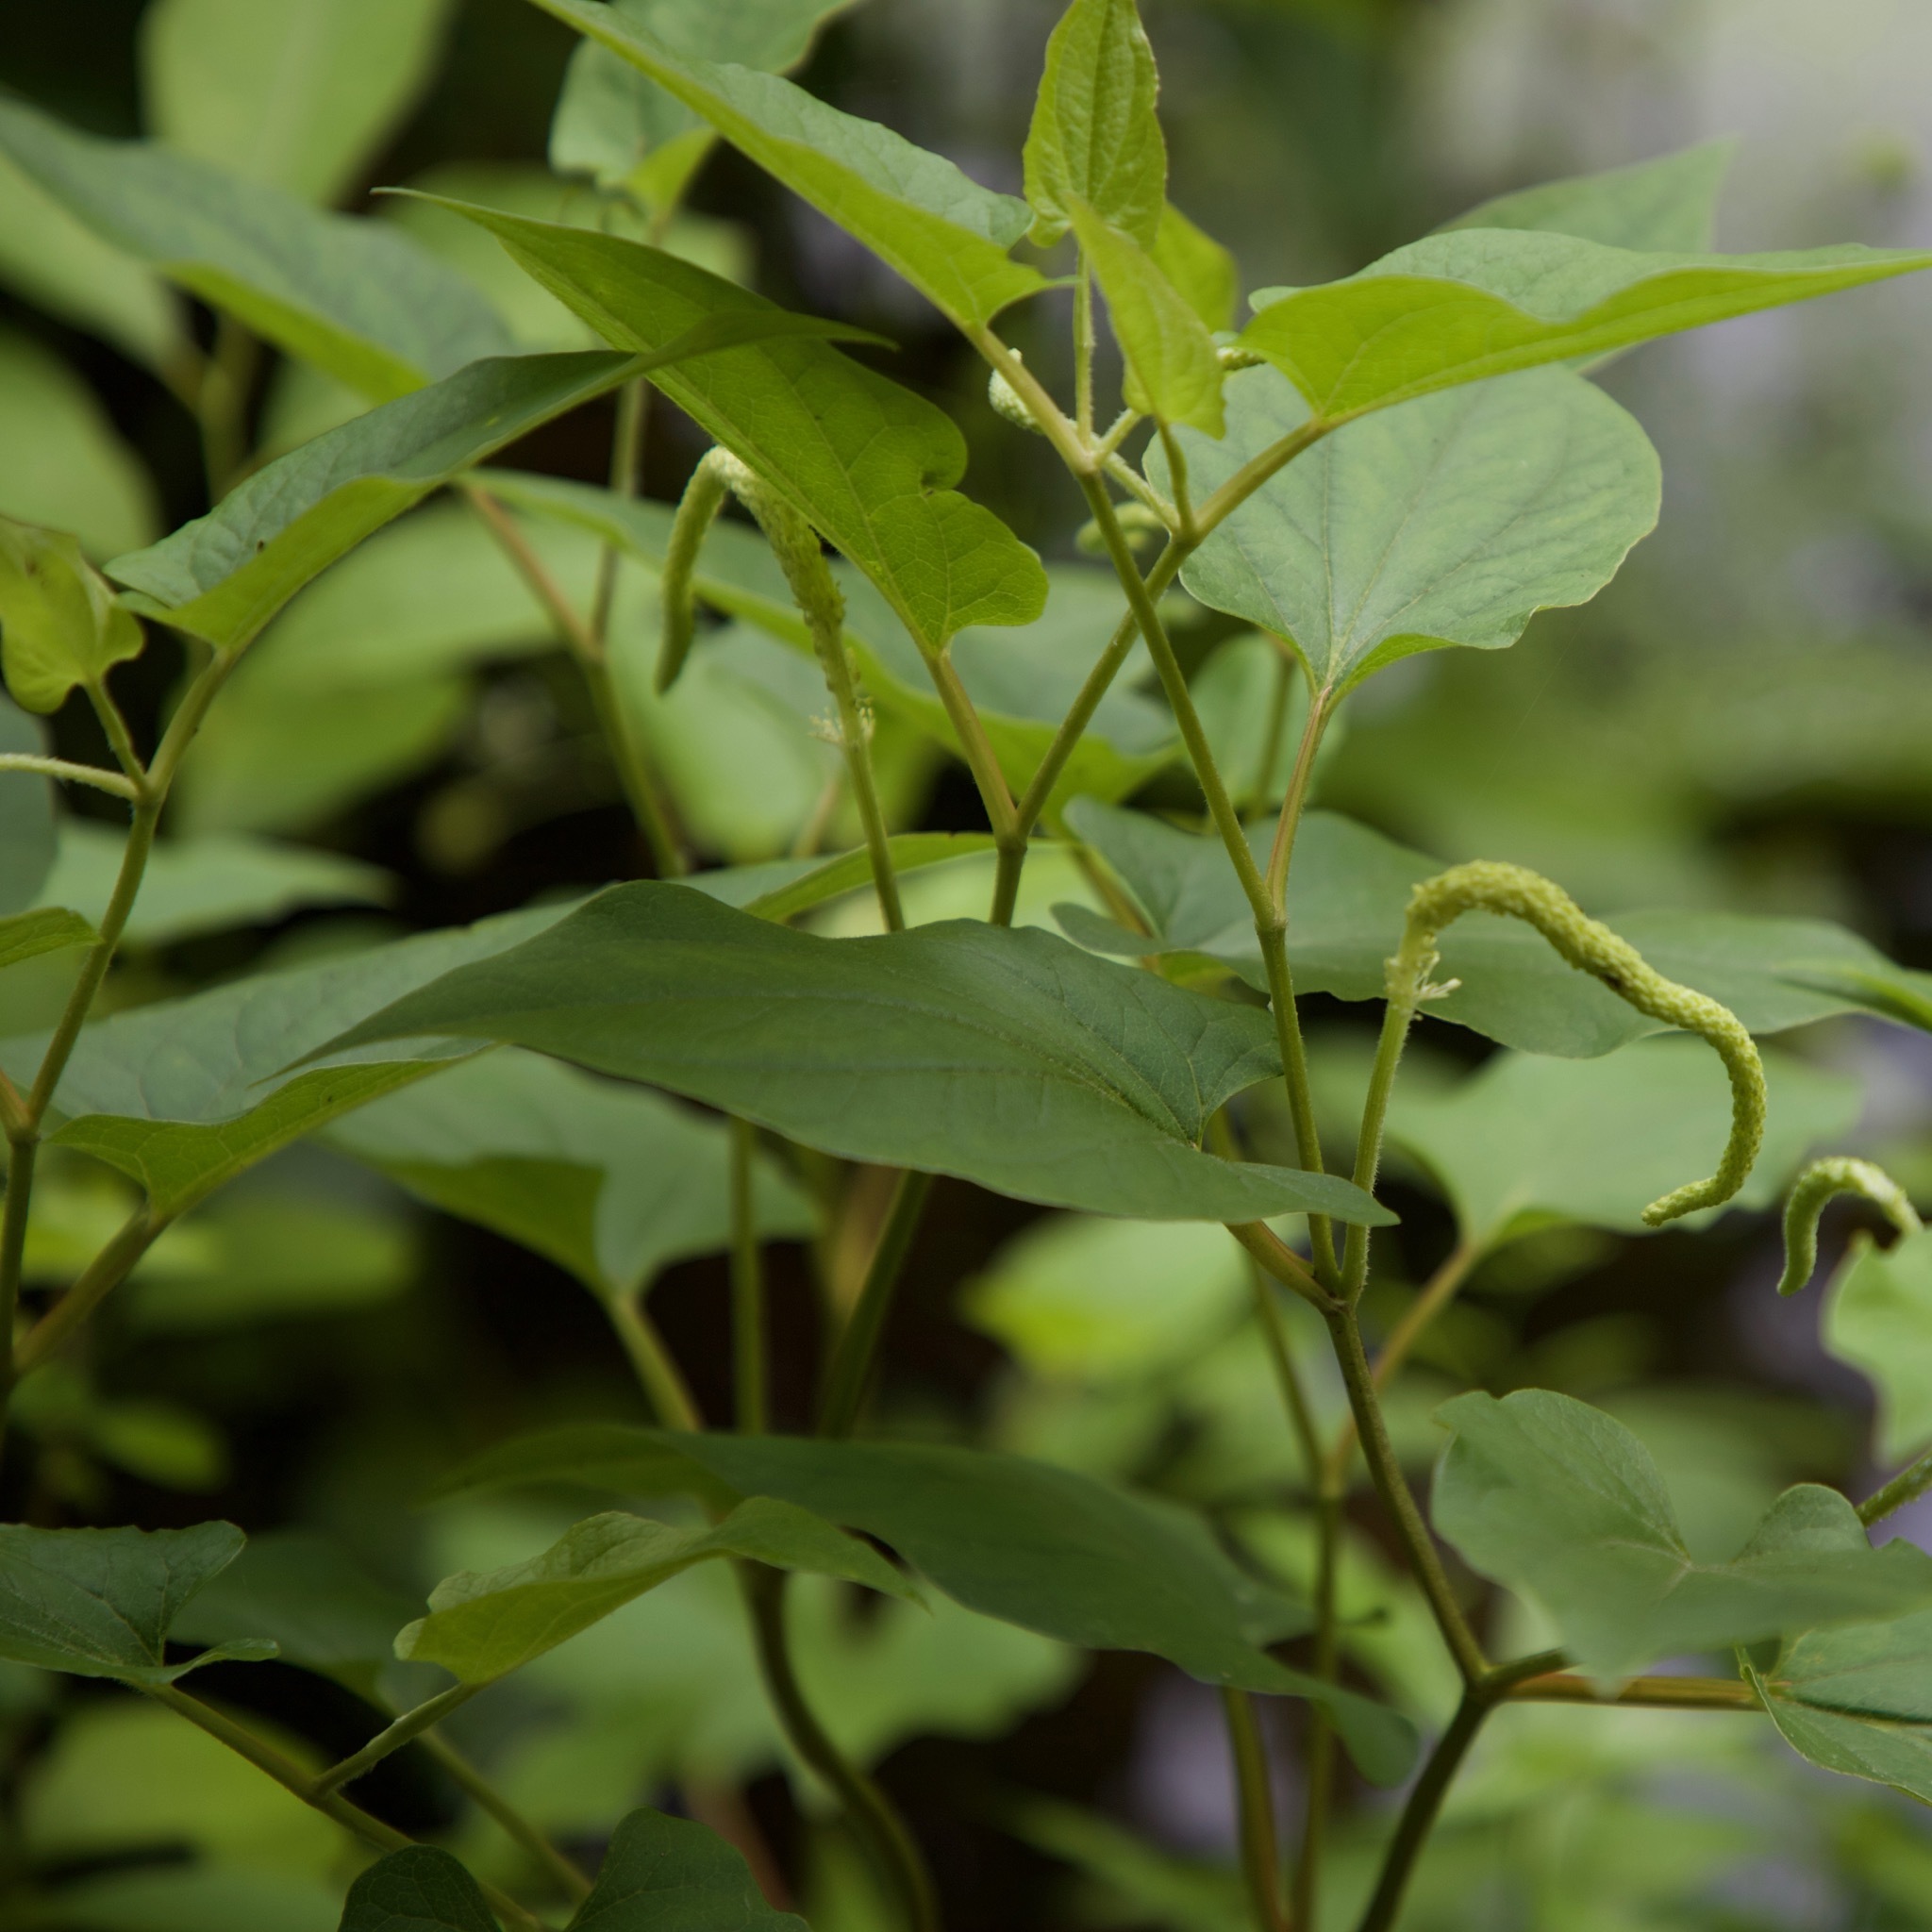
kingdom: Plantae
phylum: Tracheophyta
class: Magnoliopsida
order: Piperales
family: Saururaceae
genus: Saururus
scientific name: Saururus cernuus
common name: Lizard's-tail
